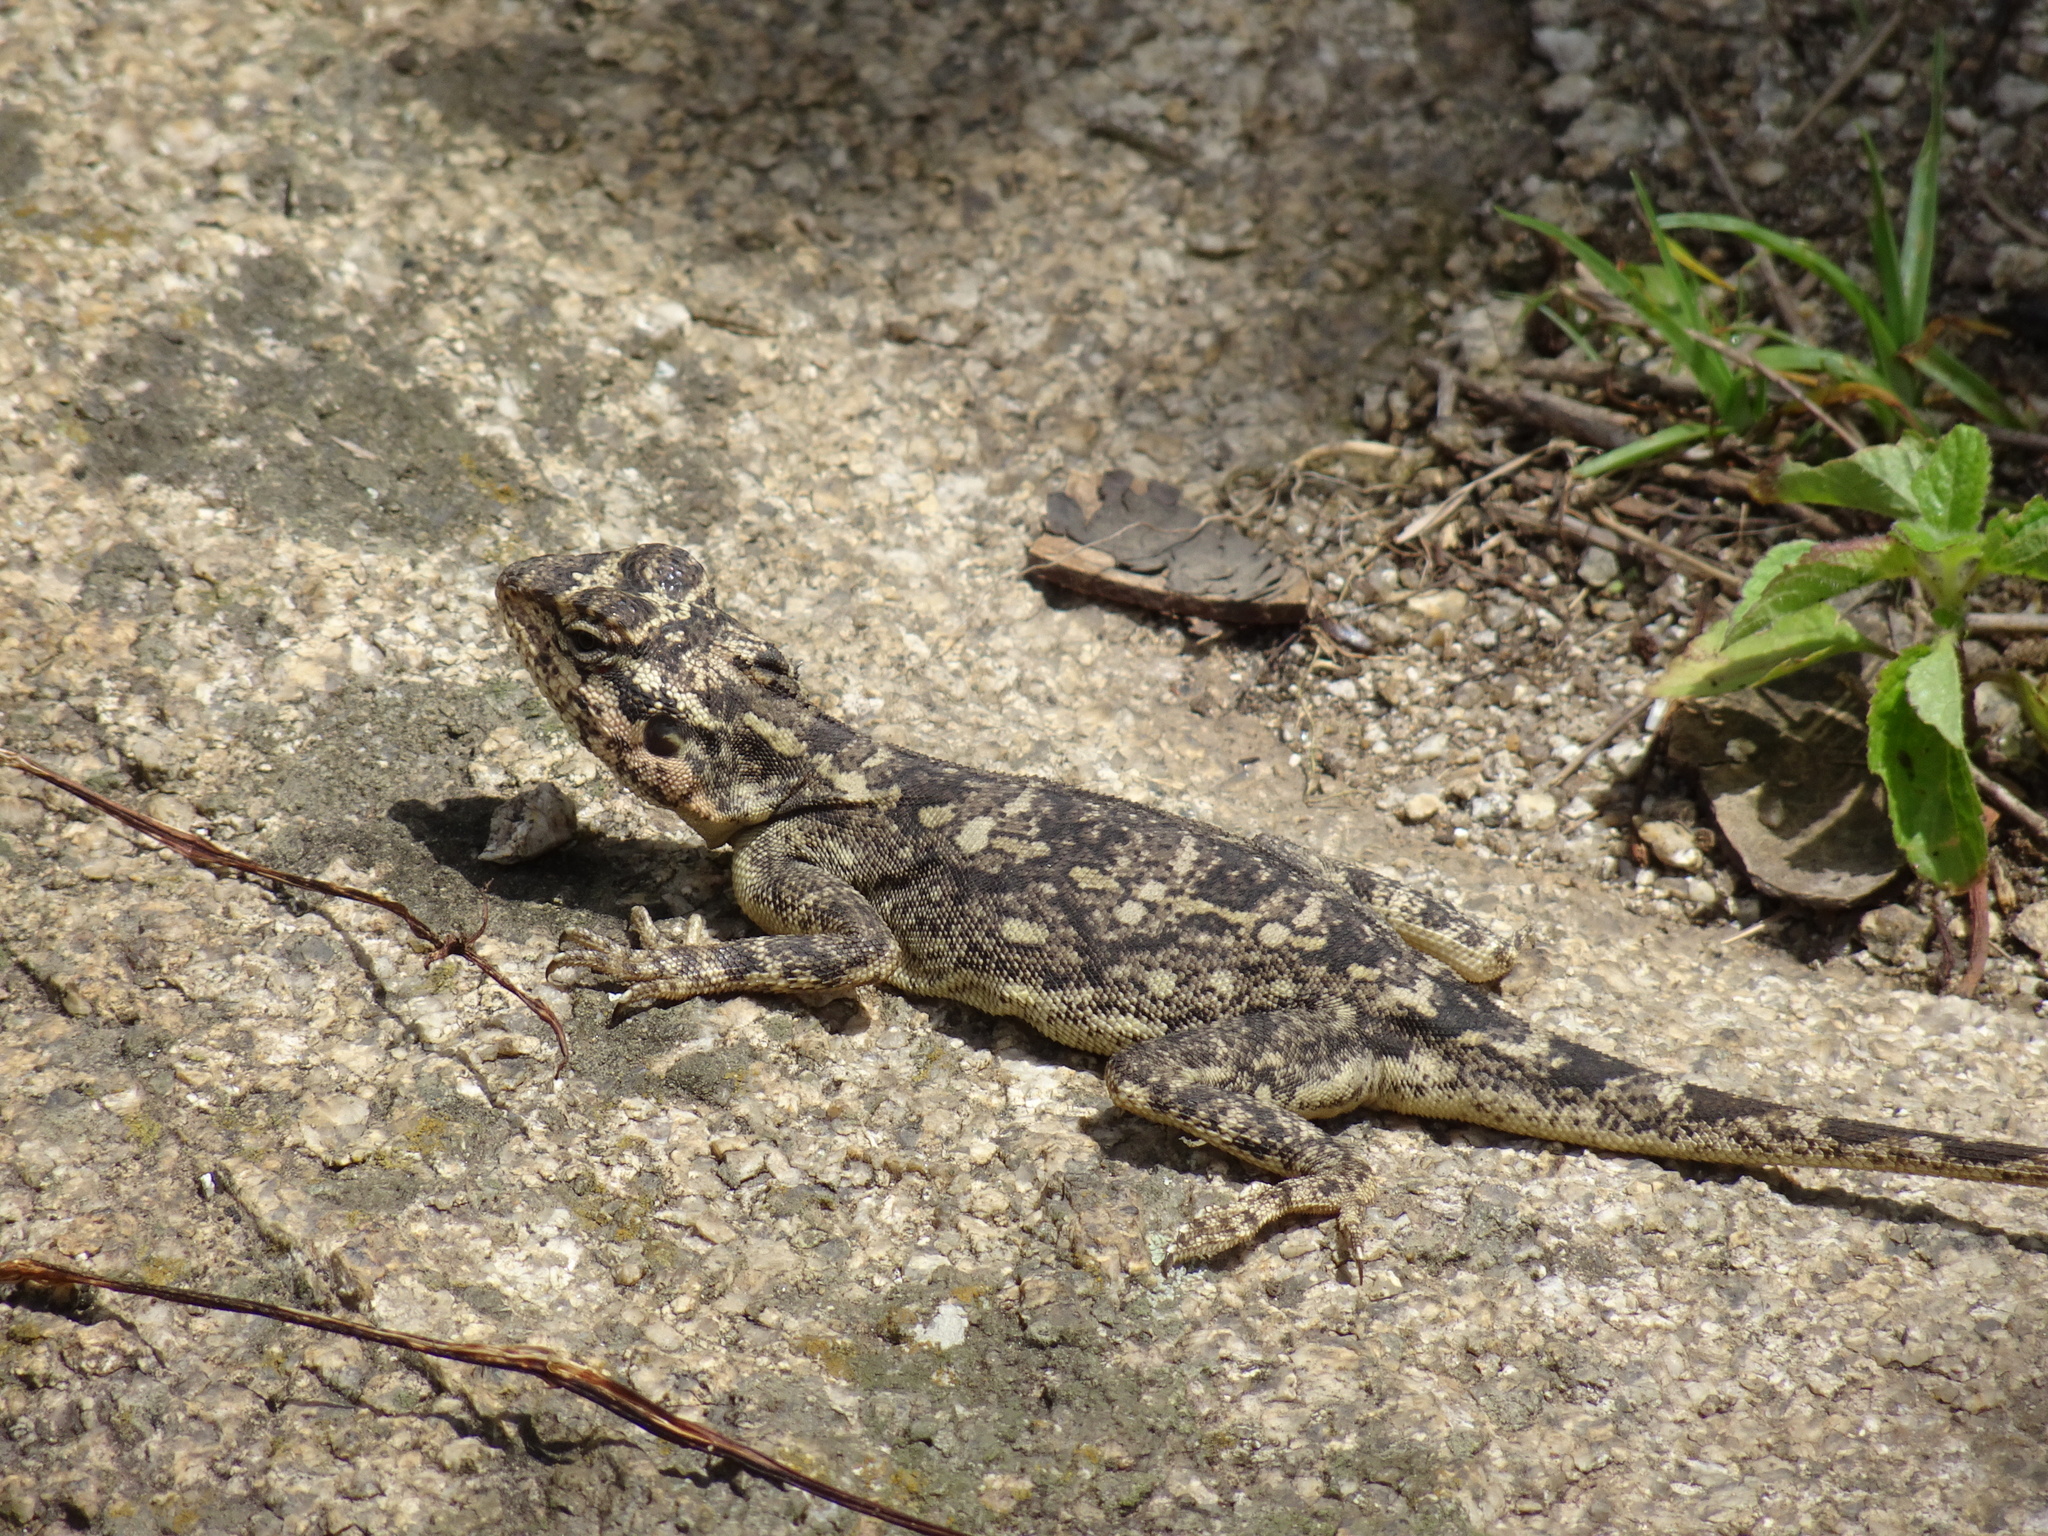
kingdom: Animalia
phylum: Chordata
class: Squamata
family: Agamidae
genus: Psammophilus
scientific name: Psammophilus dorsalis
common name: South indian rock agama
